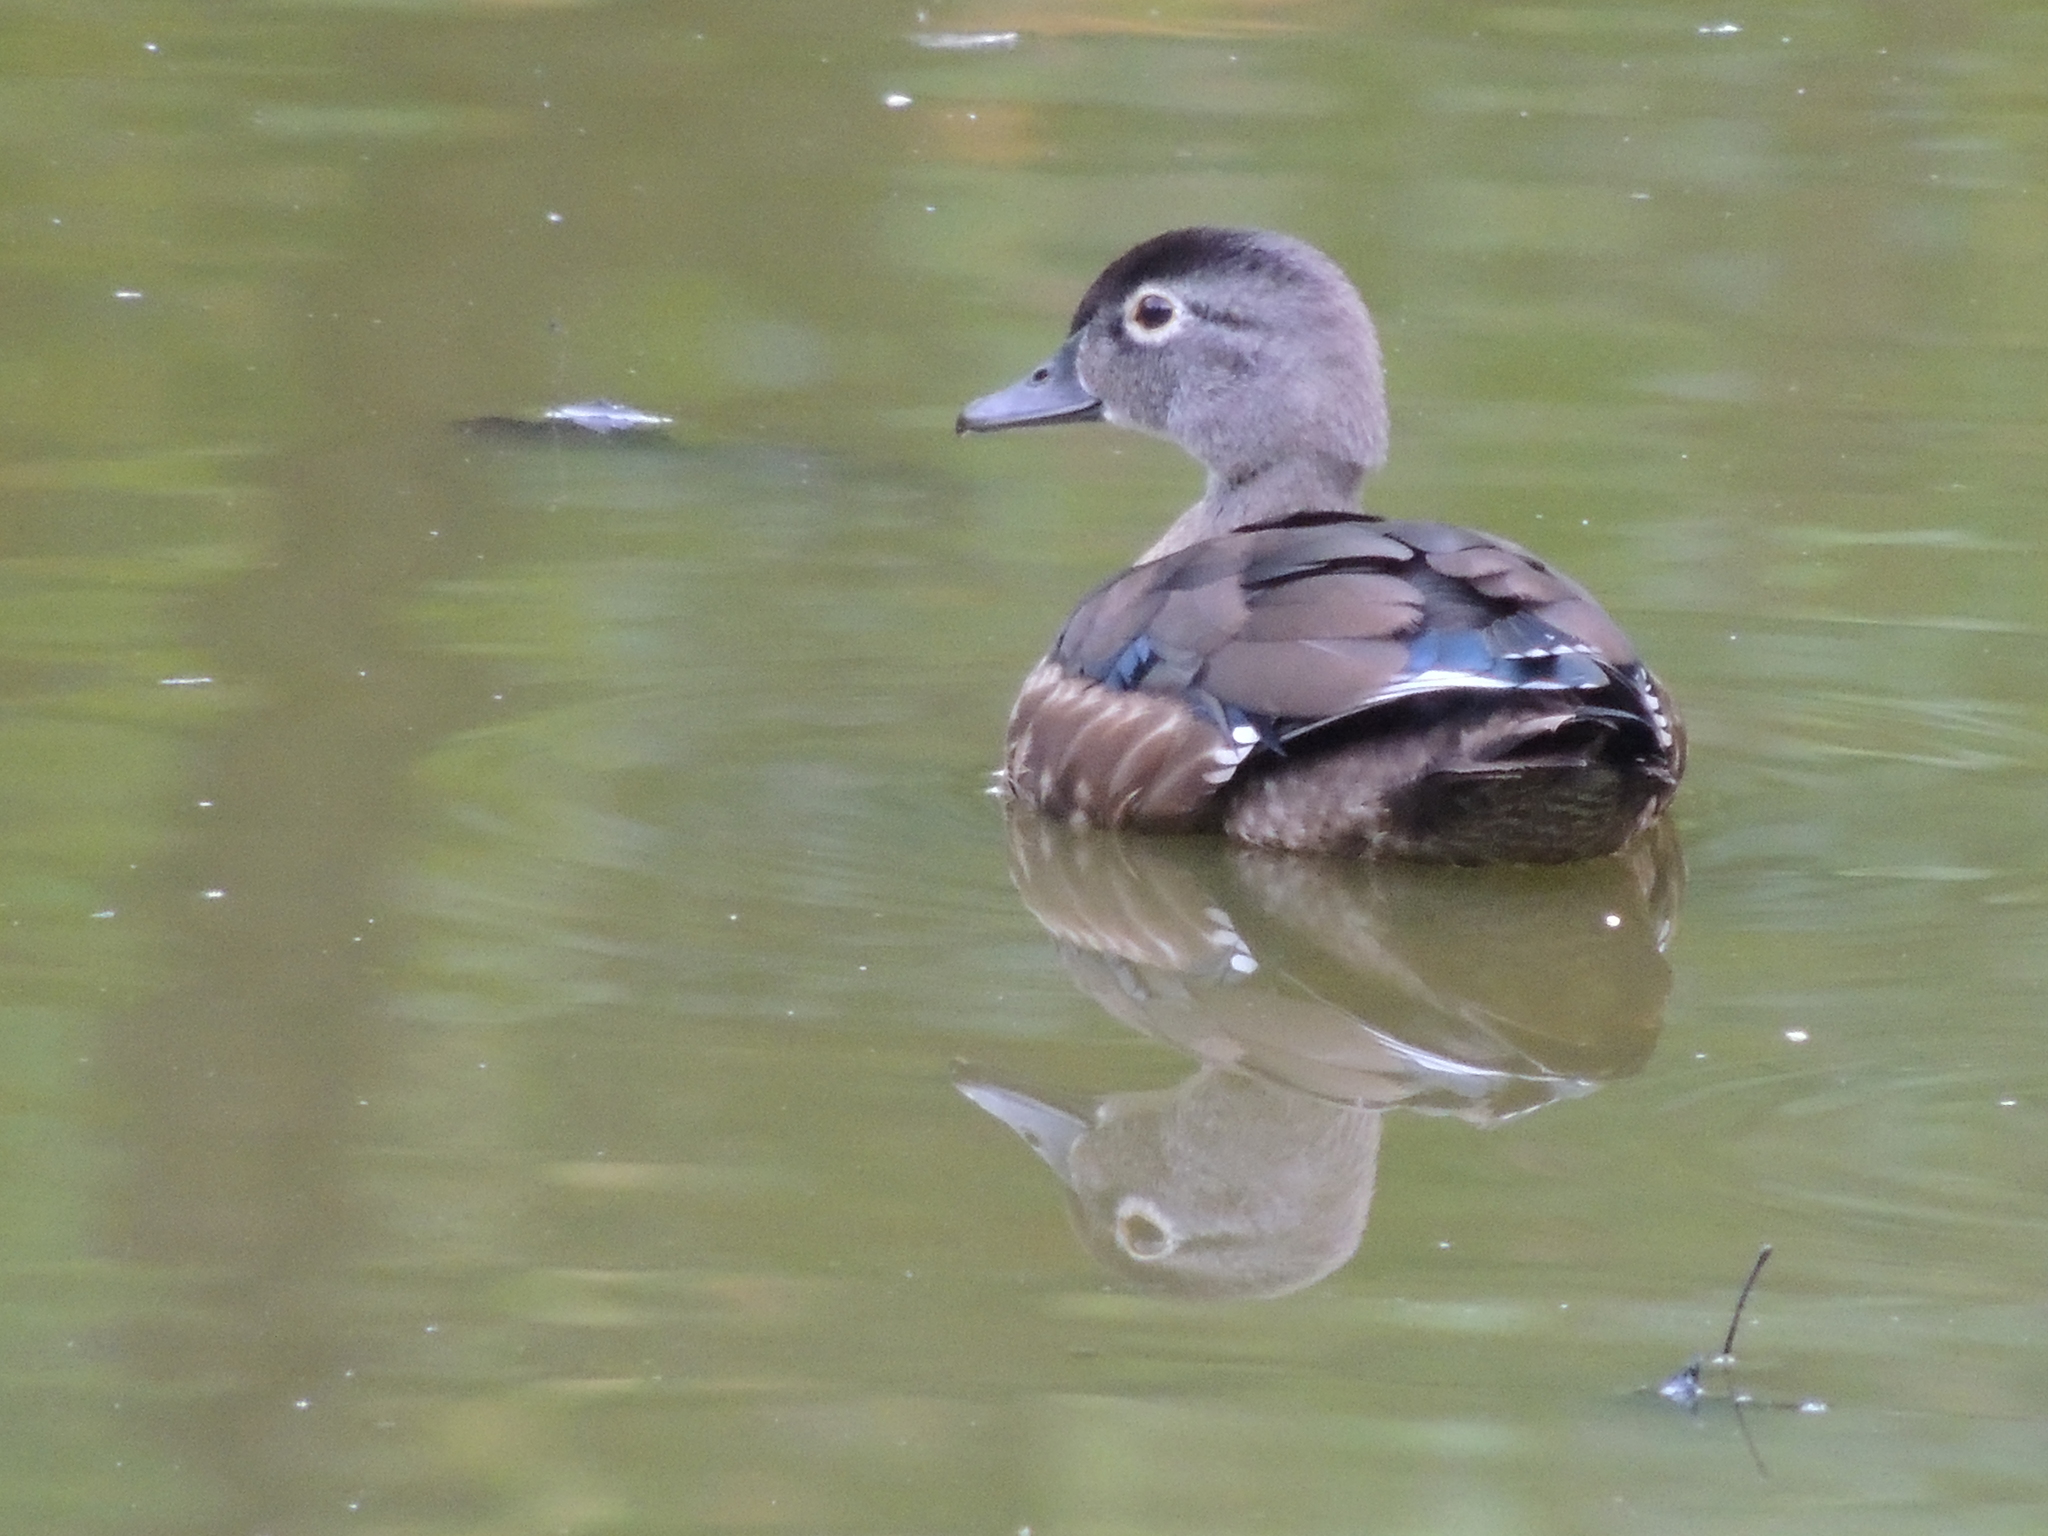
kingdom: Animalia
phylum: Chordata
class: Aves
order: Anseriformes
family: Anatidae
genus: Aix
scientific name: Aix sponsa
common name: Wood duck
